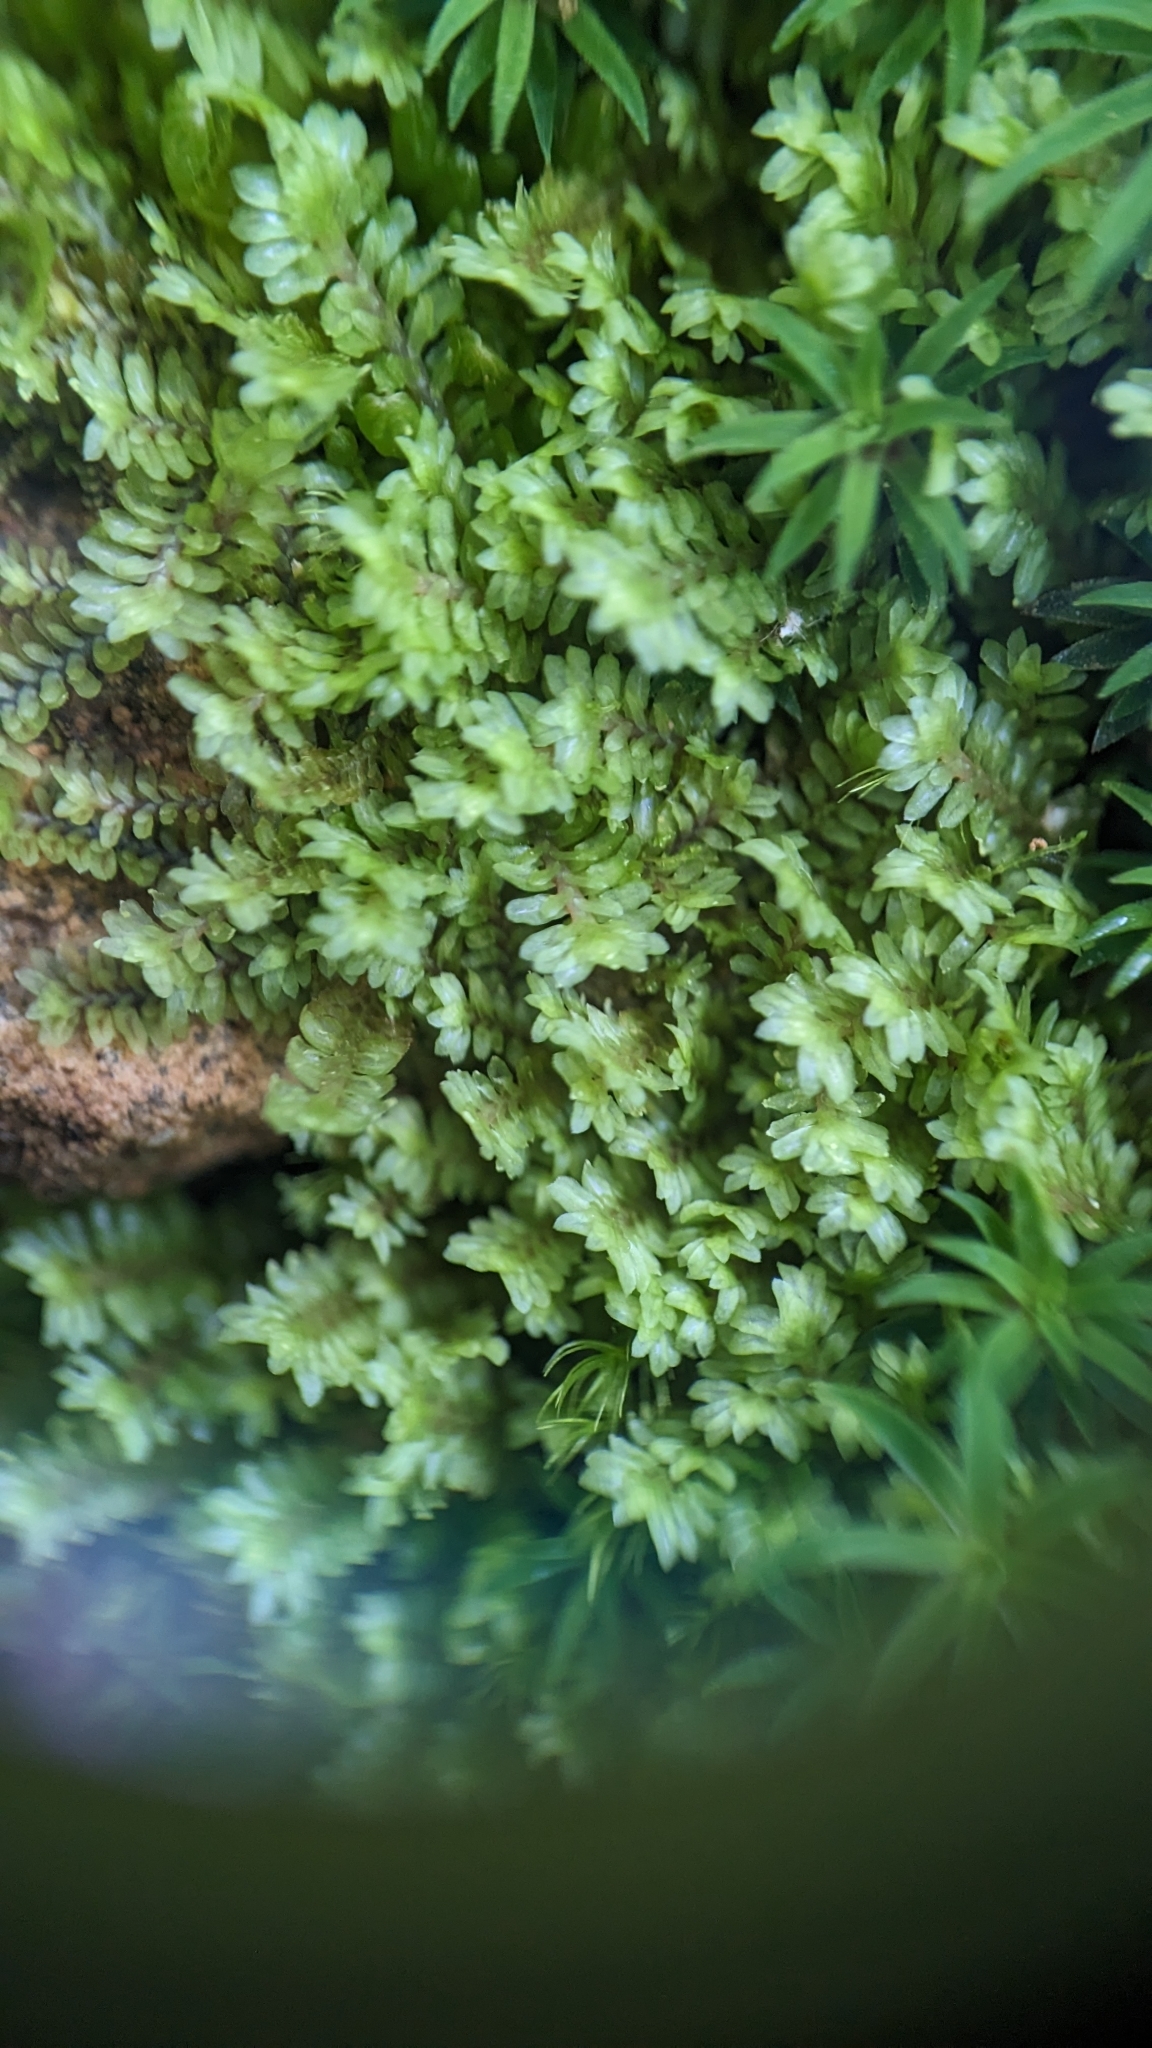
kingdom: Plantae
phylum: Marchantiophyta
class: Jungermanniopsida
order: Jungermanniales
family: Scapaniaceae
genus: Diplophyllum
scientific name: Diplophyllum albicans
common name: White earwort
